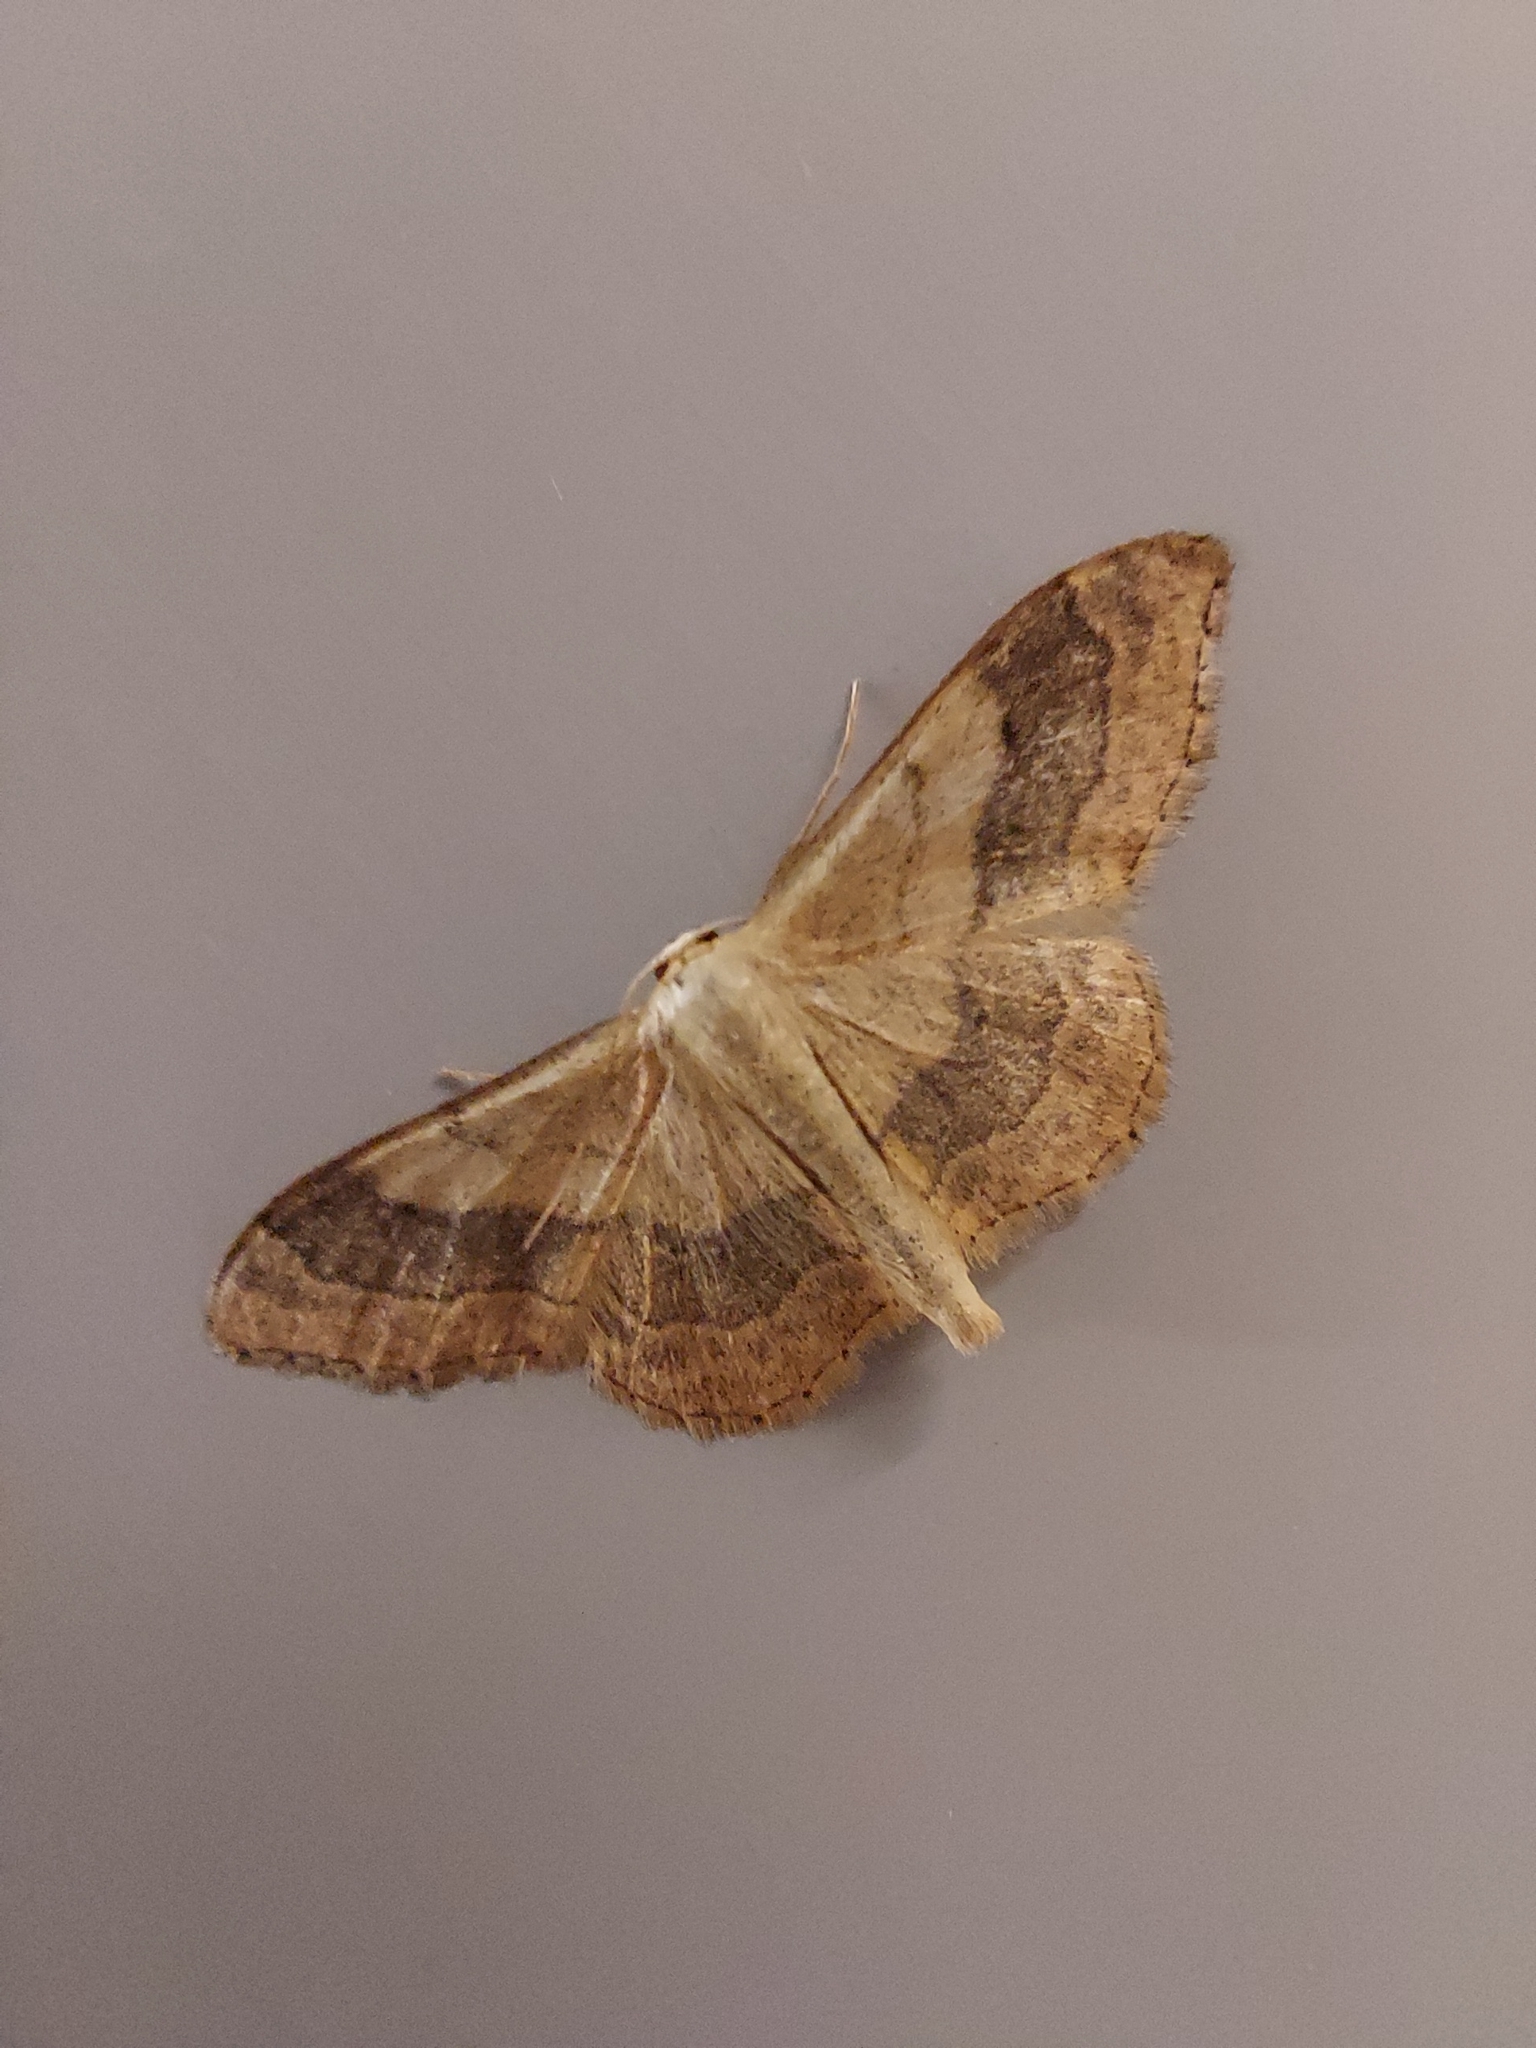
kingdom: Animalia
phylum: Arthropoda
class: Insecta
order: Lepidoptera
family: Geometridae
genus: Idaea
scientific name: Idaea aversata
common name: Riband wave
